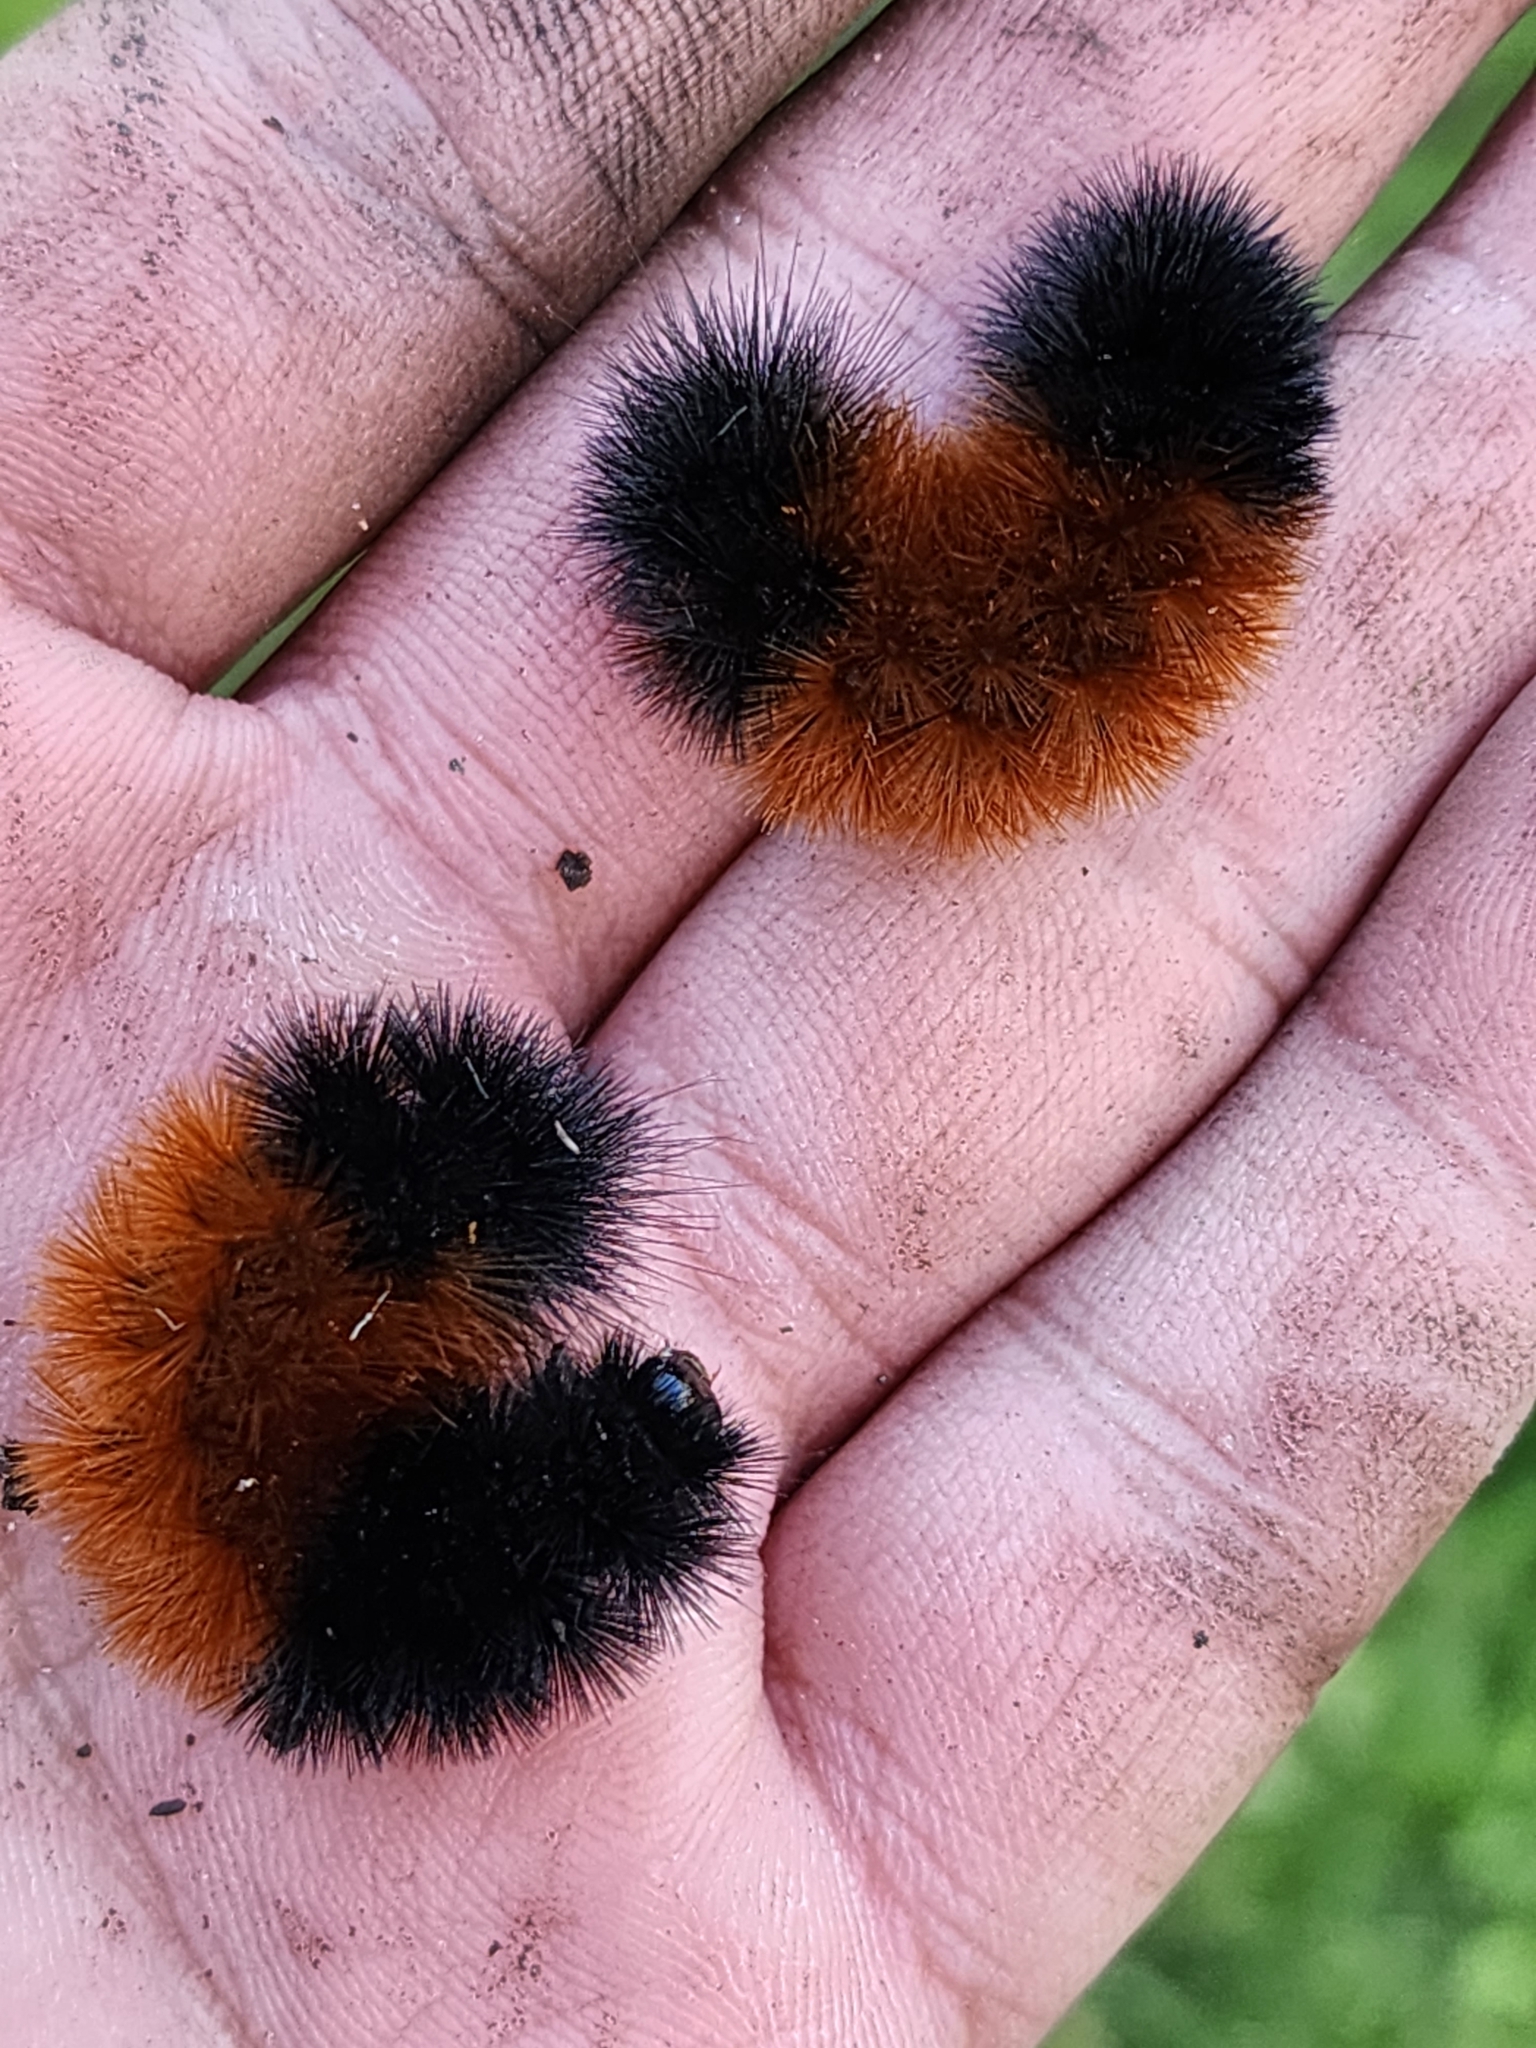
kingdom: Animalia
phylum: Arthropoda
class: Insecta
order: Lepidoptera
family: Erebidae
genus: Pyrrharctia
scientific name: Pyrrharctia isabella
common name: Isabella tiger moth
